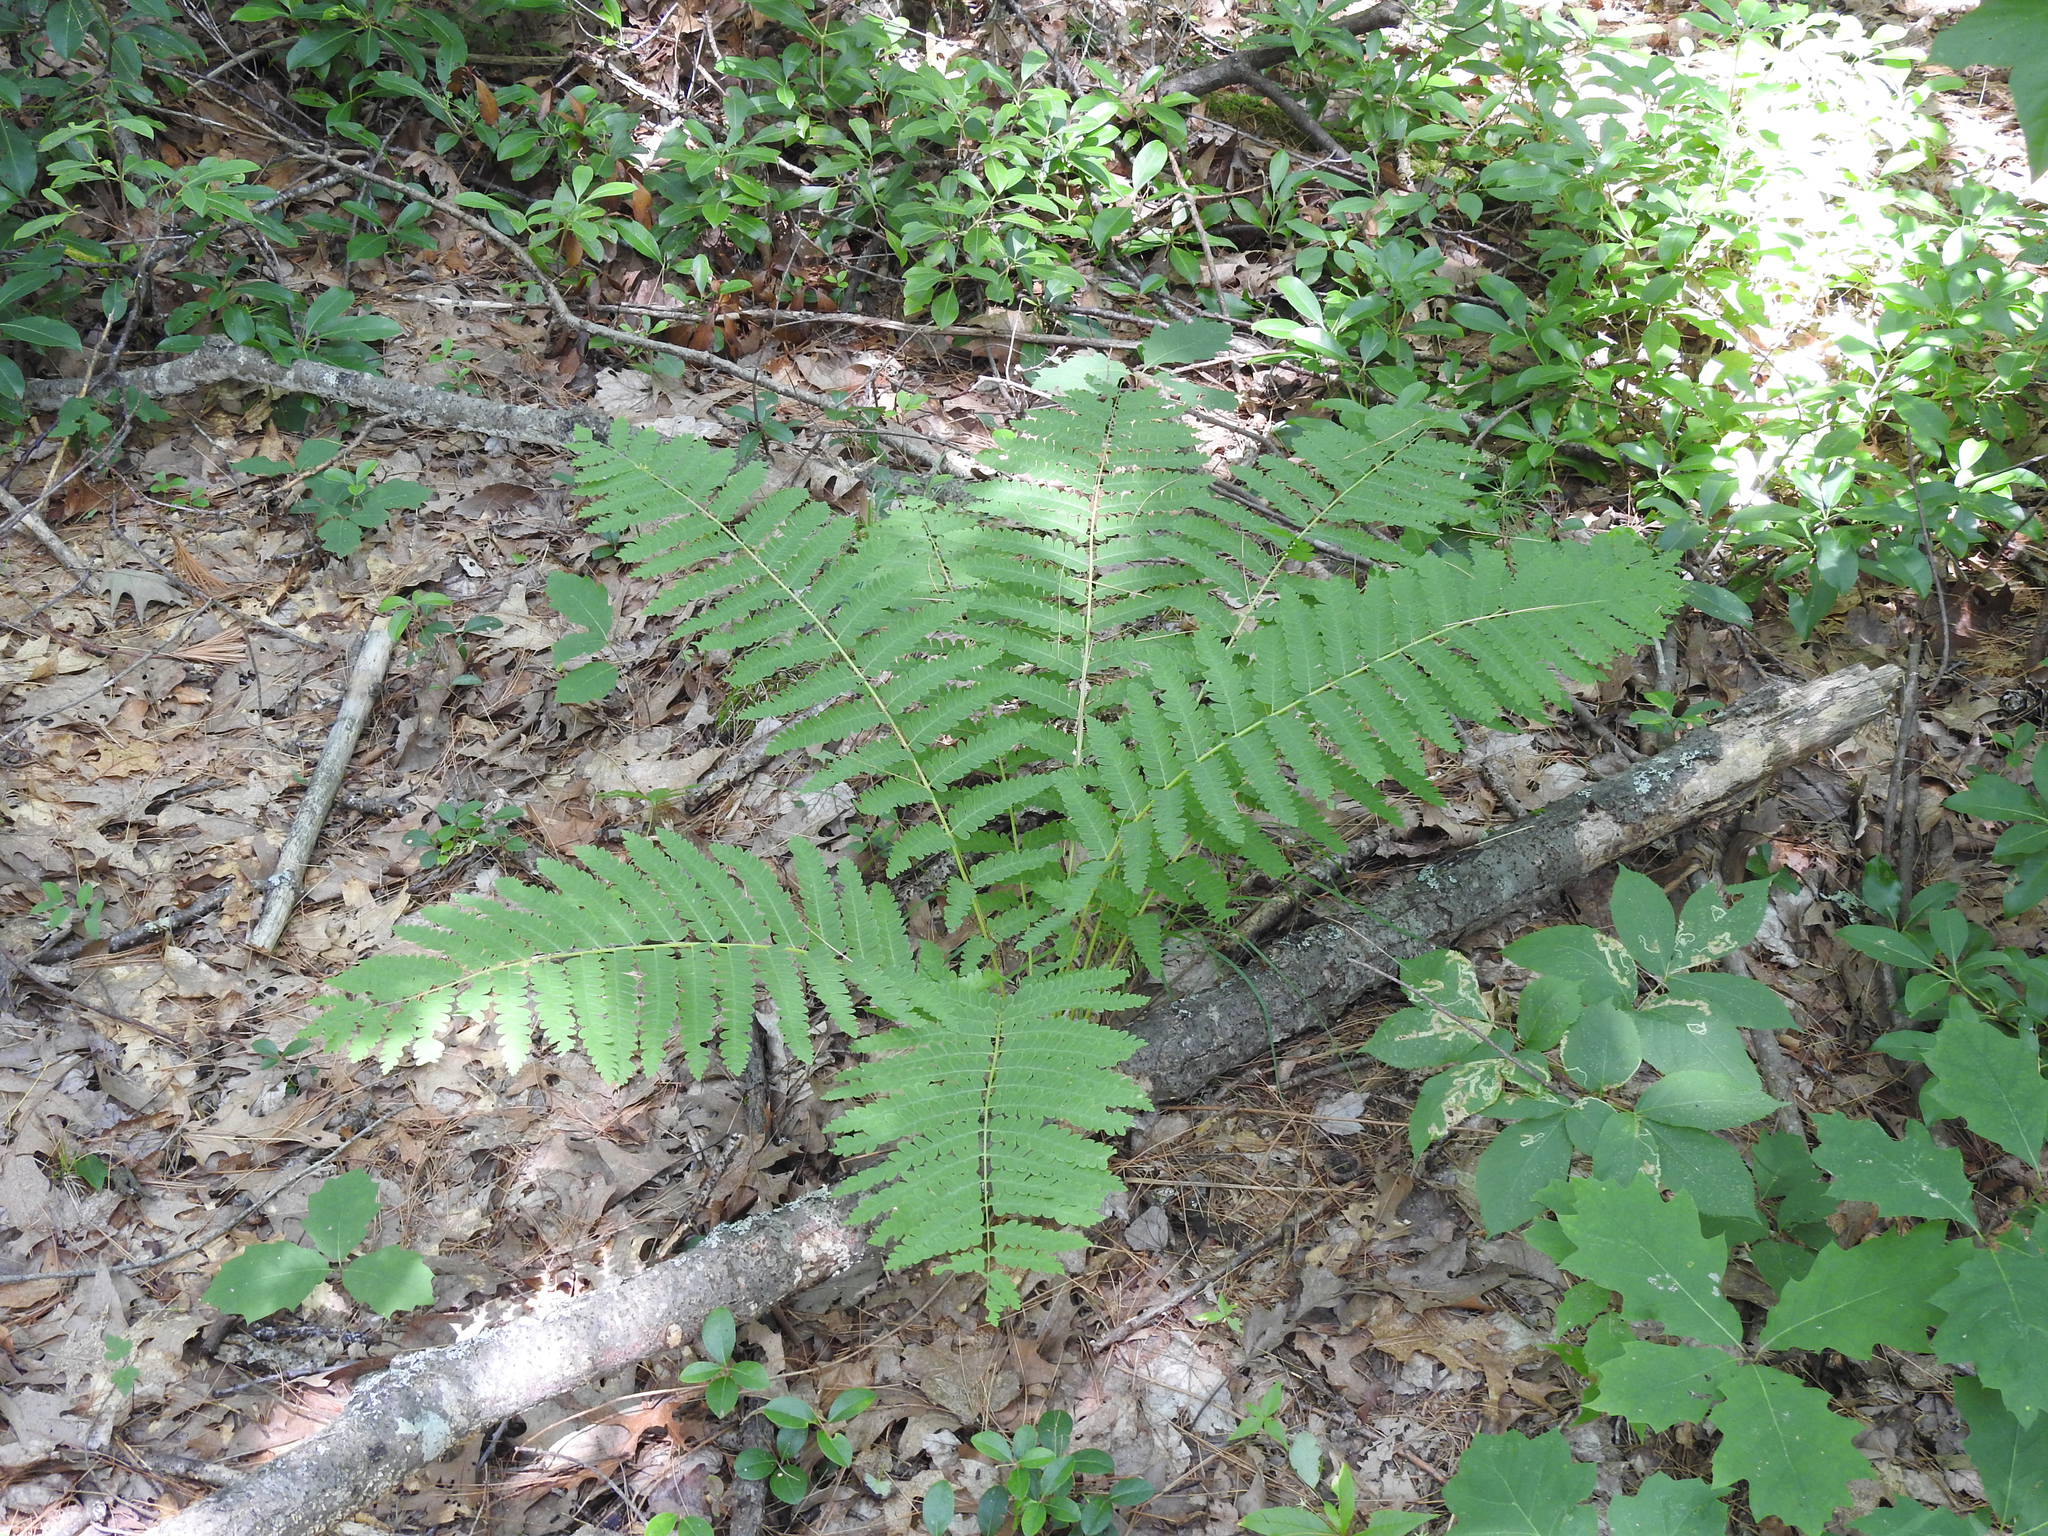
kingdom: Plantae
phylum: Tracheophyta
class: Polypodiopsida
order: Osmundales
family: Osmundaceae
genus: Claytosmunda
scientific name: Claytosmunda claytoniana
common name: Clayton's fern
